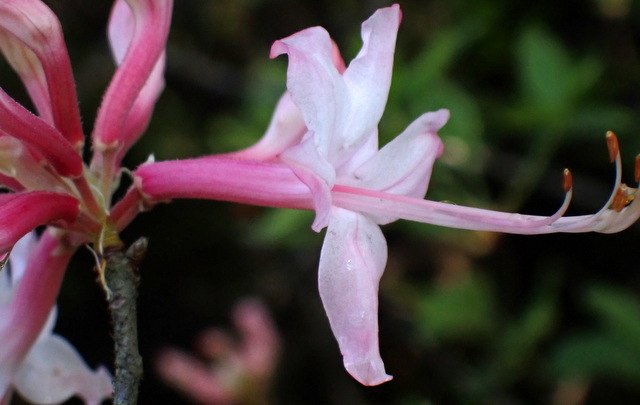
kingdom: Plantae
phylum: Tracheophyta
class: Magnoliopsida
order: Ericales
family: Ericaceae
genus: Rhododendron
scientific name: Rhododendron canescens
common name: Mountain azalea
